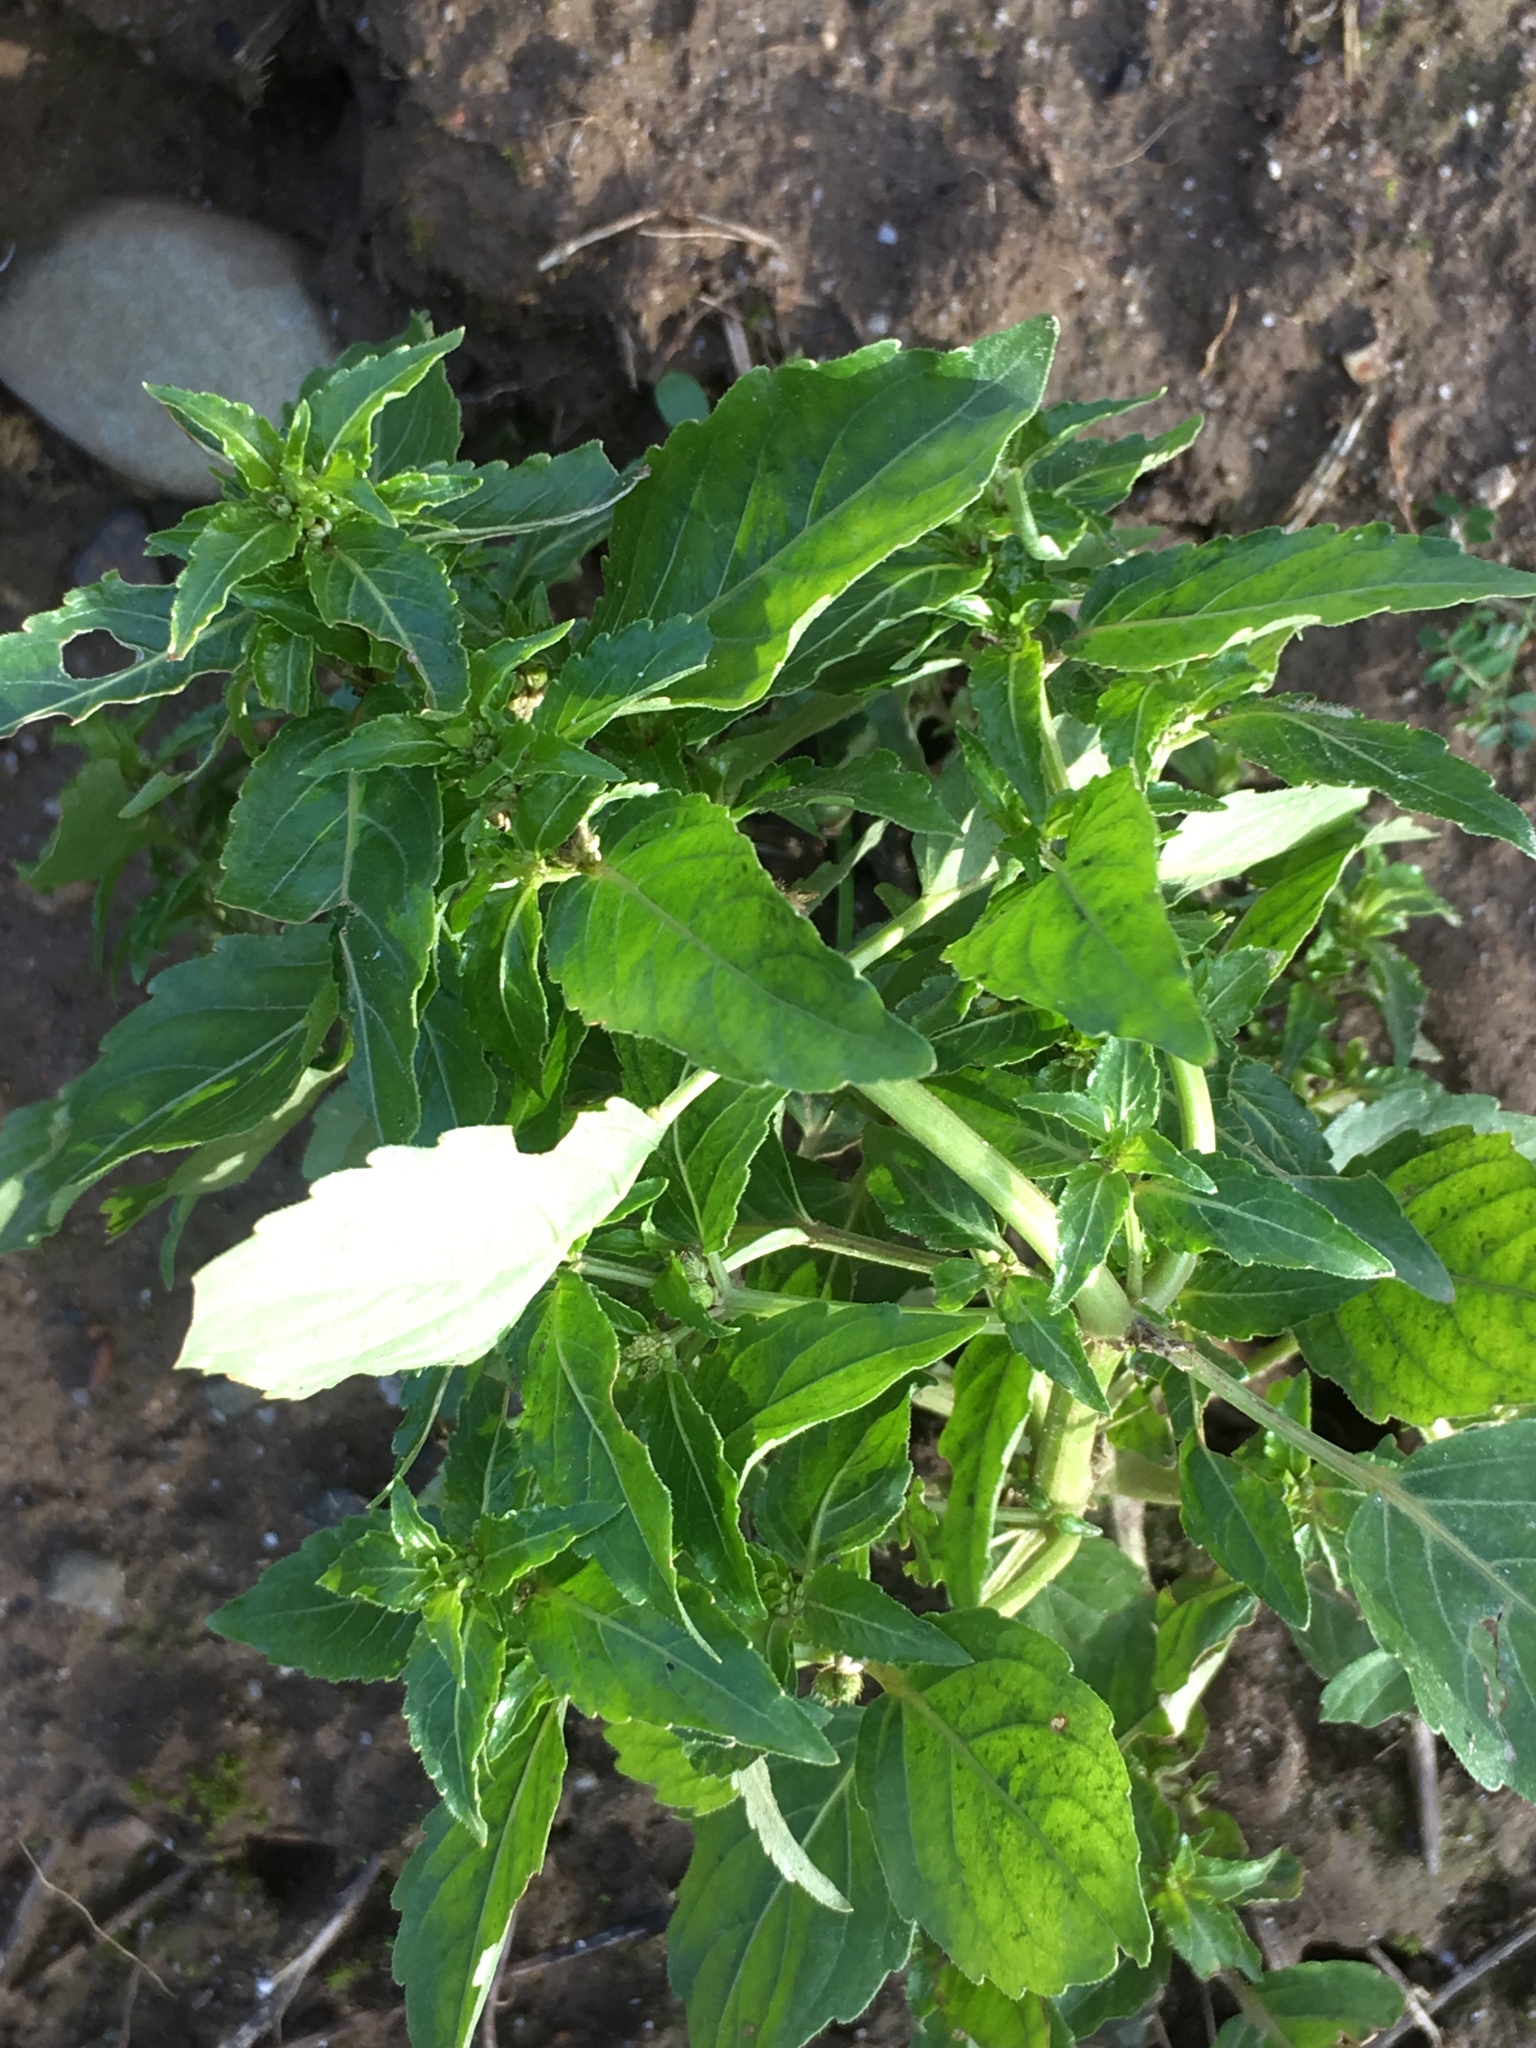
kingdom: Plantae
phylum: Tracheophyta
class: Magnoliopsida
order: Malpighiales
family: Euphorbiaceae
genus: Mercurialis
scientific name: Mercurialis annua
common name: Annual mercury
